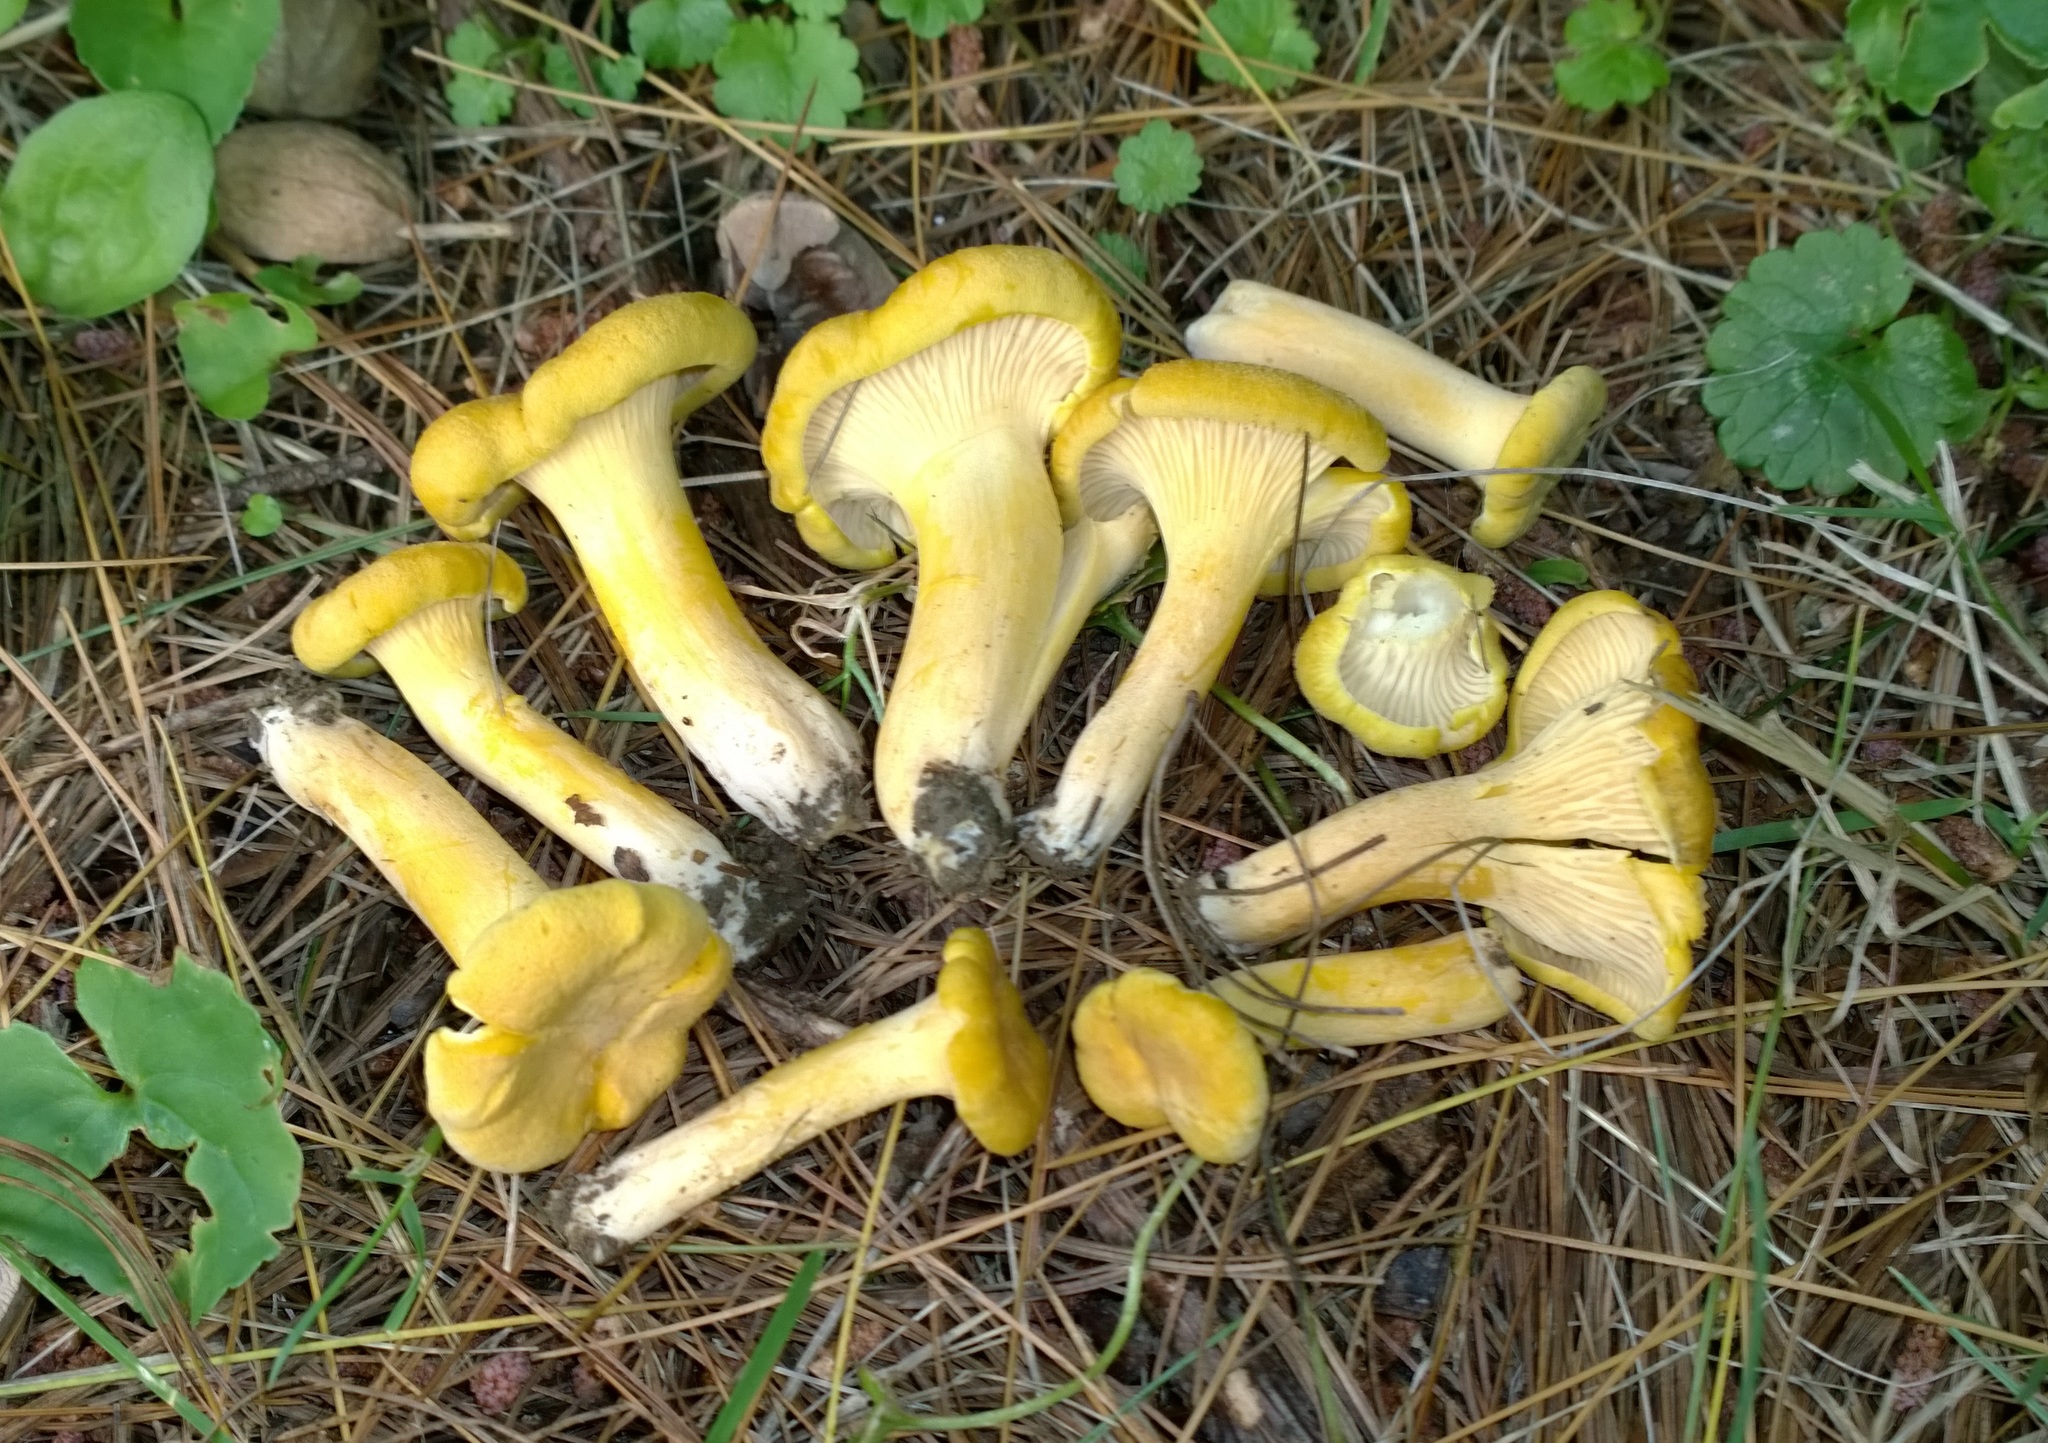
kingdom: Fungi
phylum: Basidiomycota
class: Agaricomycetes
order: Cantharellales
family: Hydnaceae
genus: Cantharellus
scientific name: Cantharellus chicagoensis
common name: Chicago chanterelle
